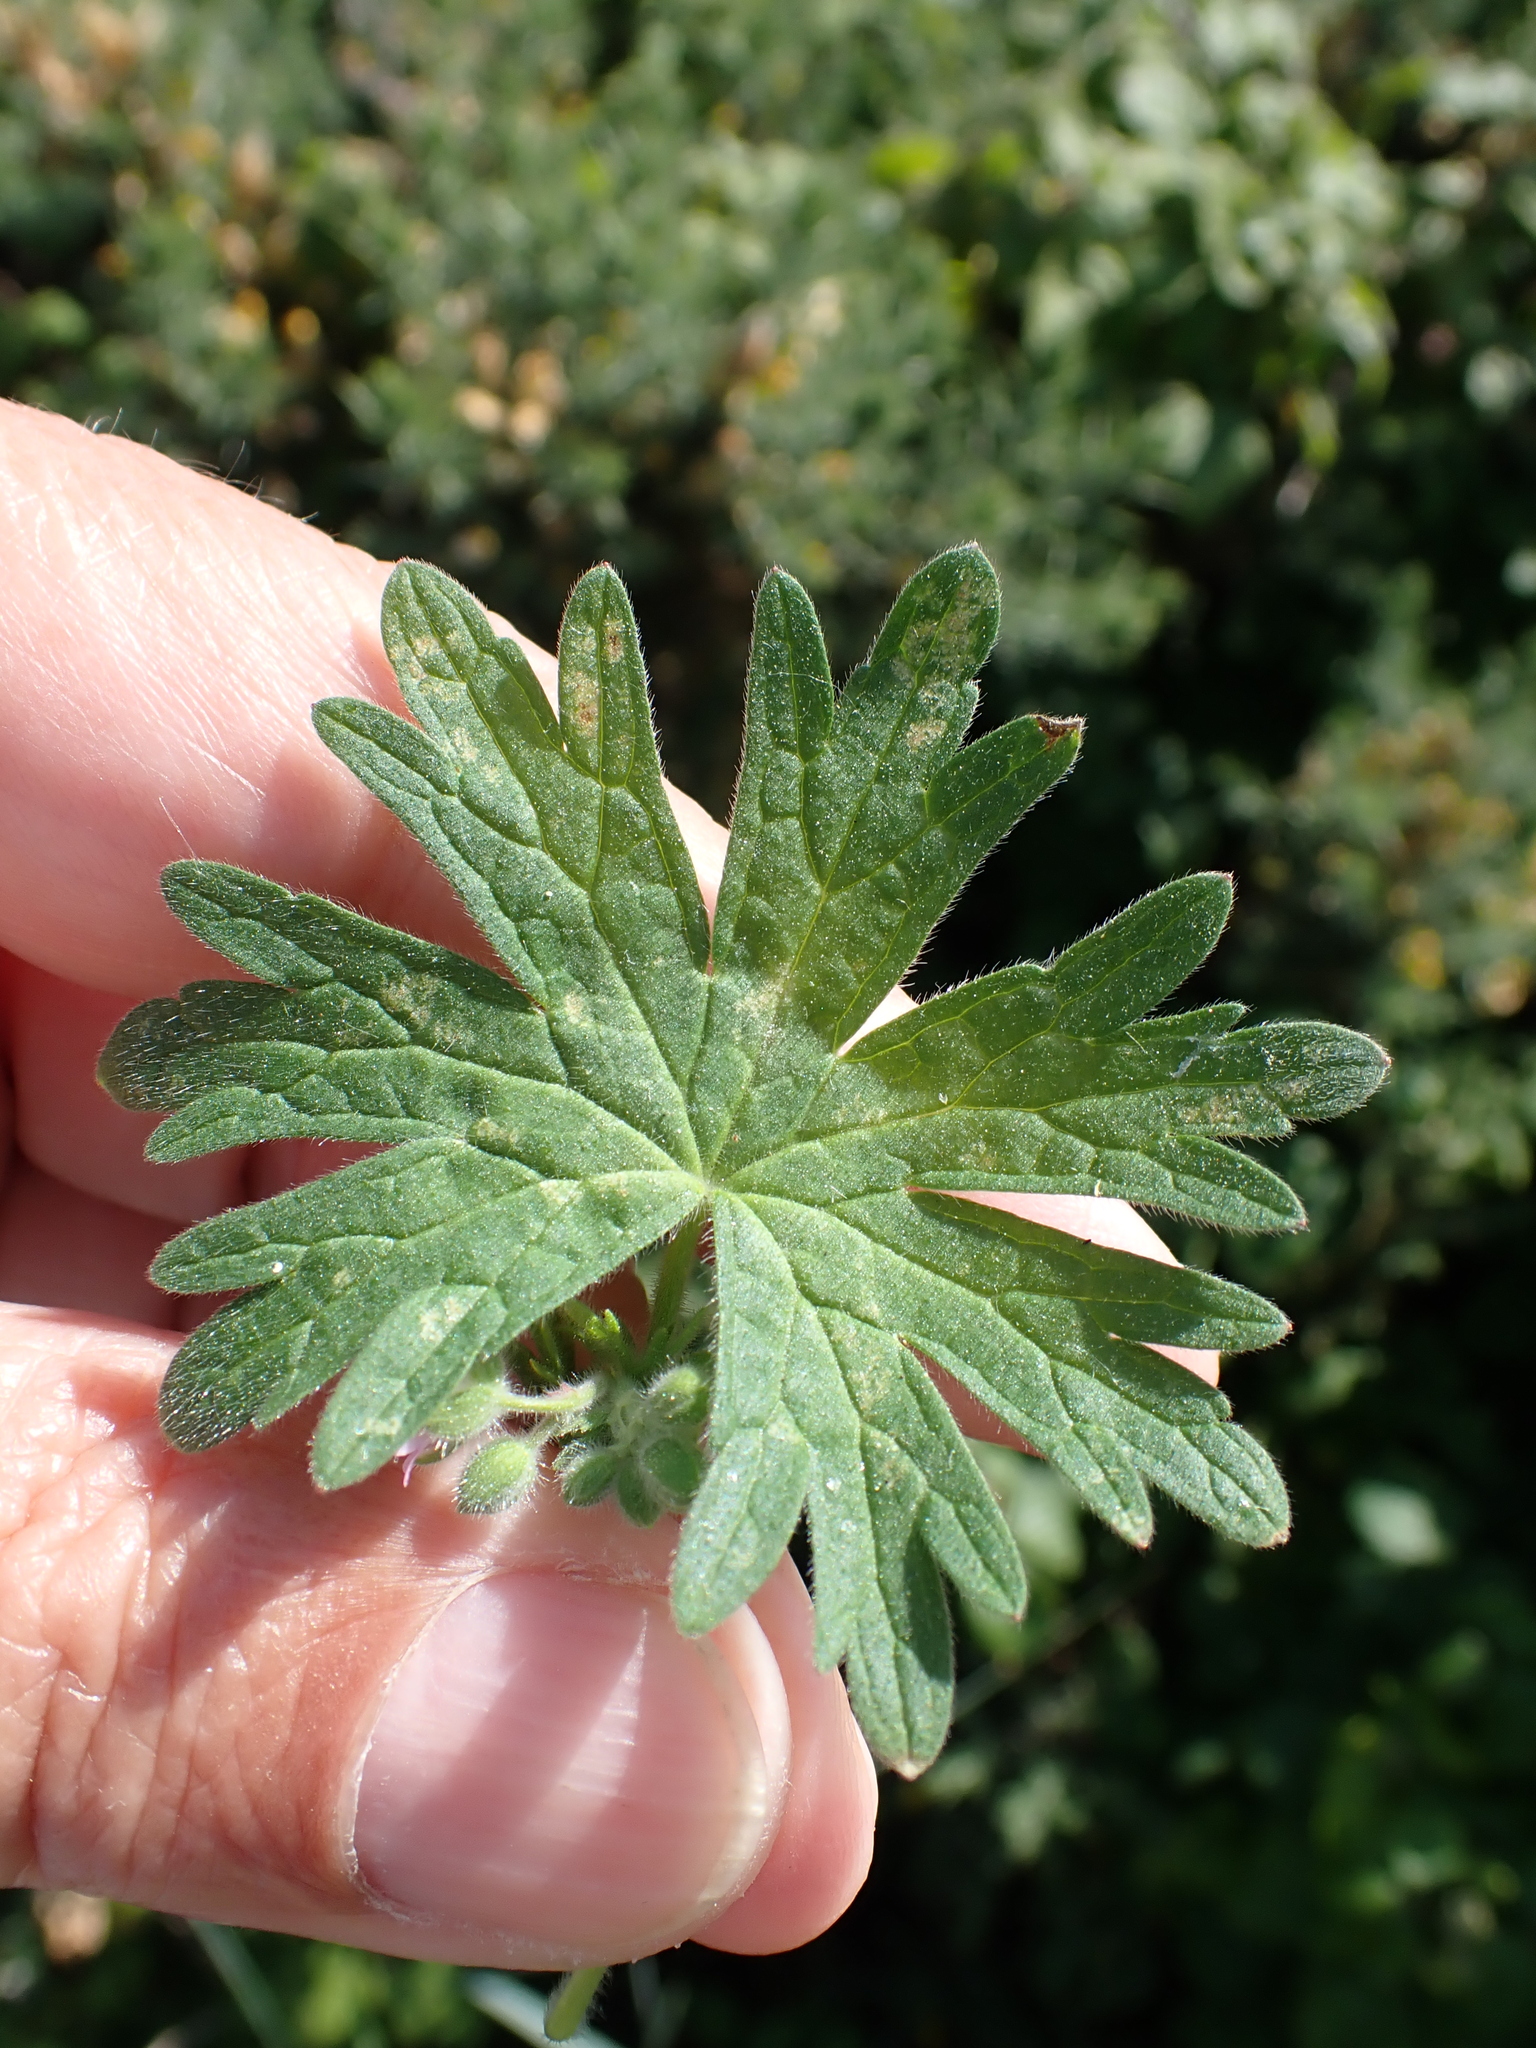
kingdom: Plantae
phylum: Tracheophyta
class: Magnoliopsida
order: Geraniales
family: Geraniaceae
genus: Geranium
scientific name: Geranium molle
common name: Dove's-foot crane's-bill
